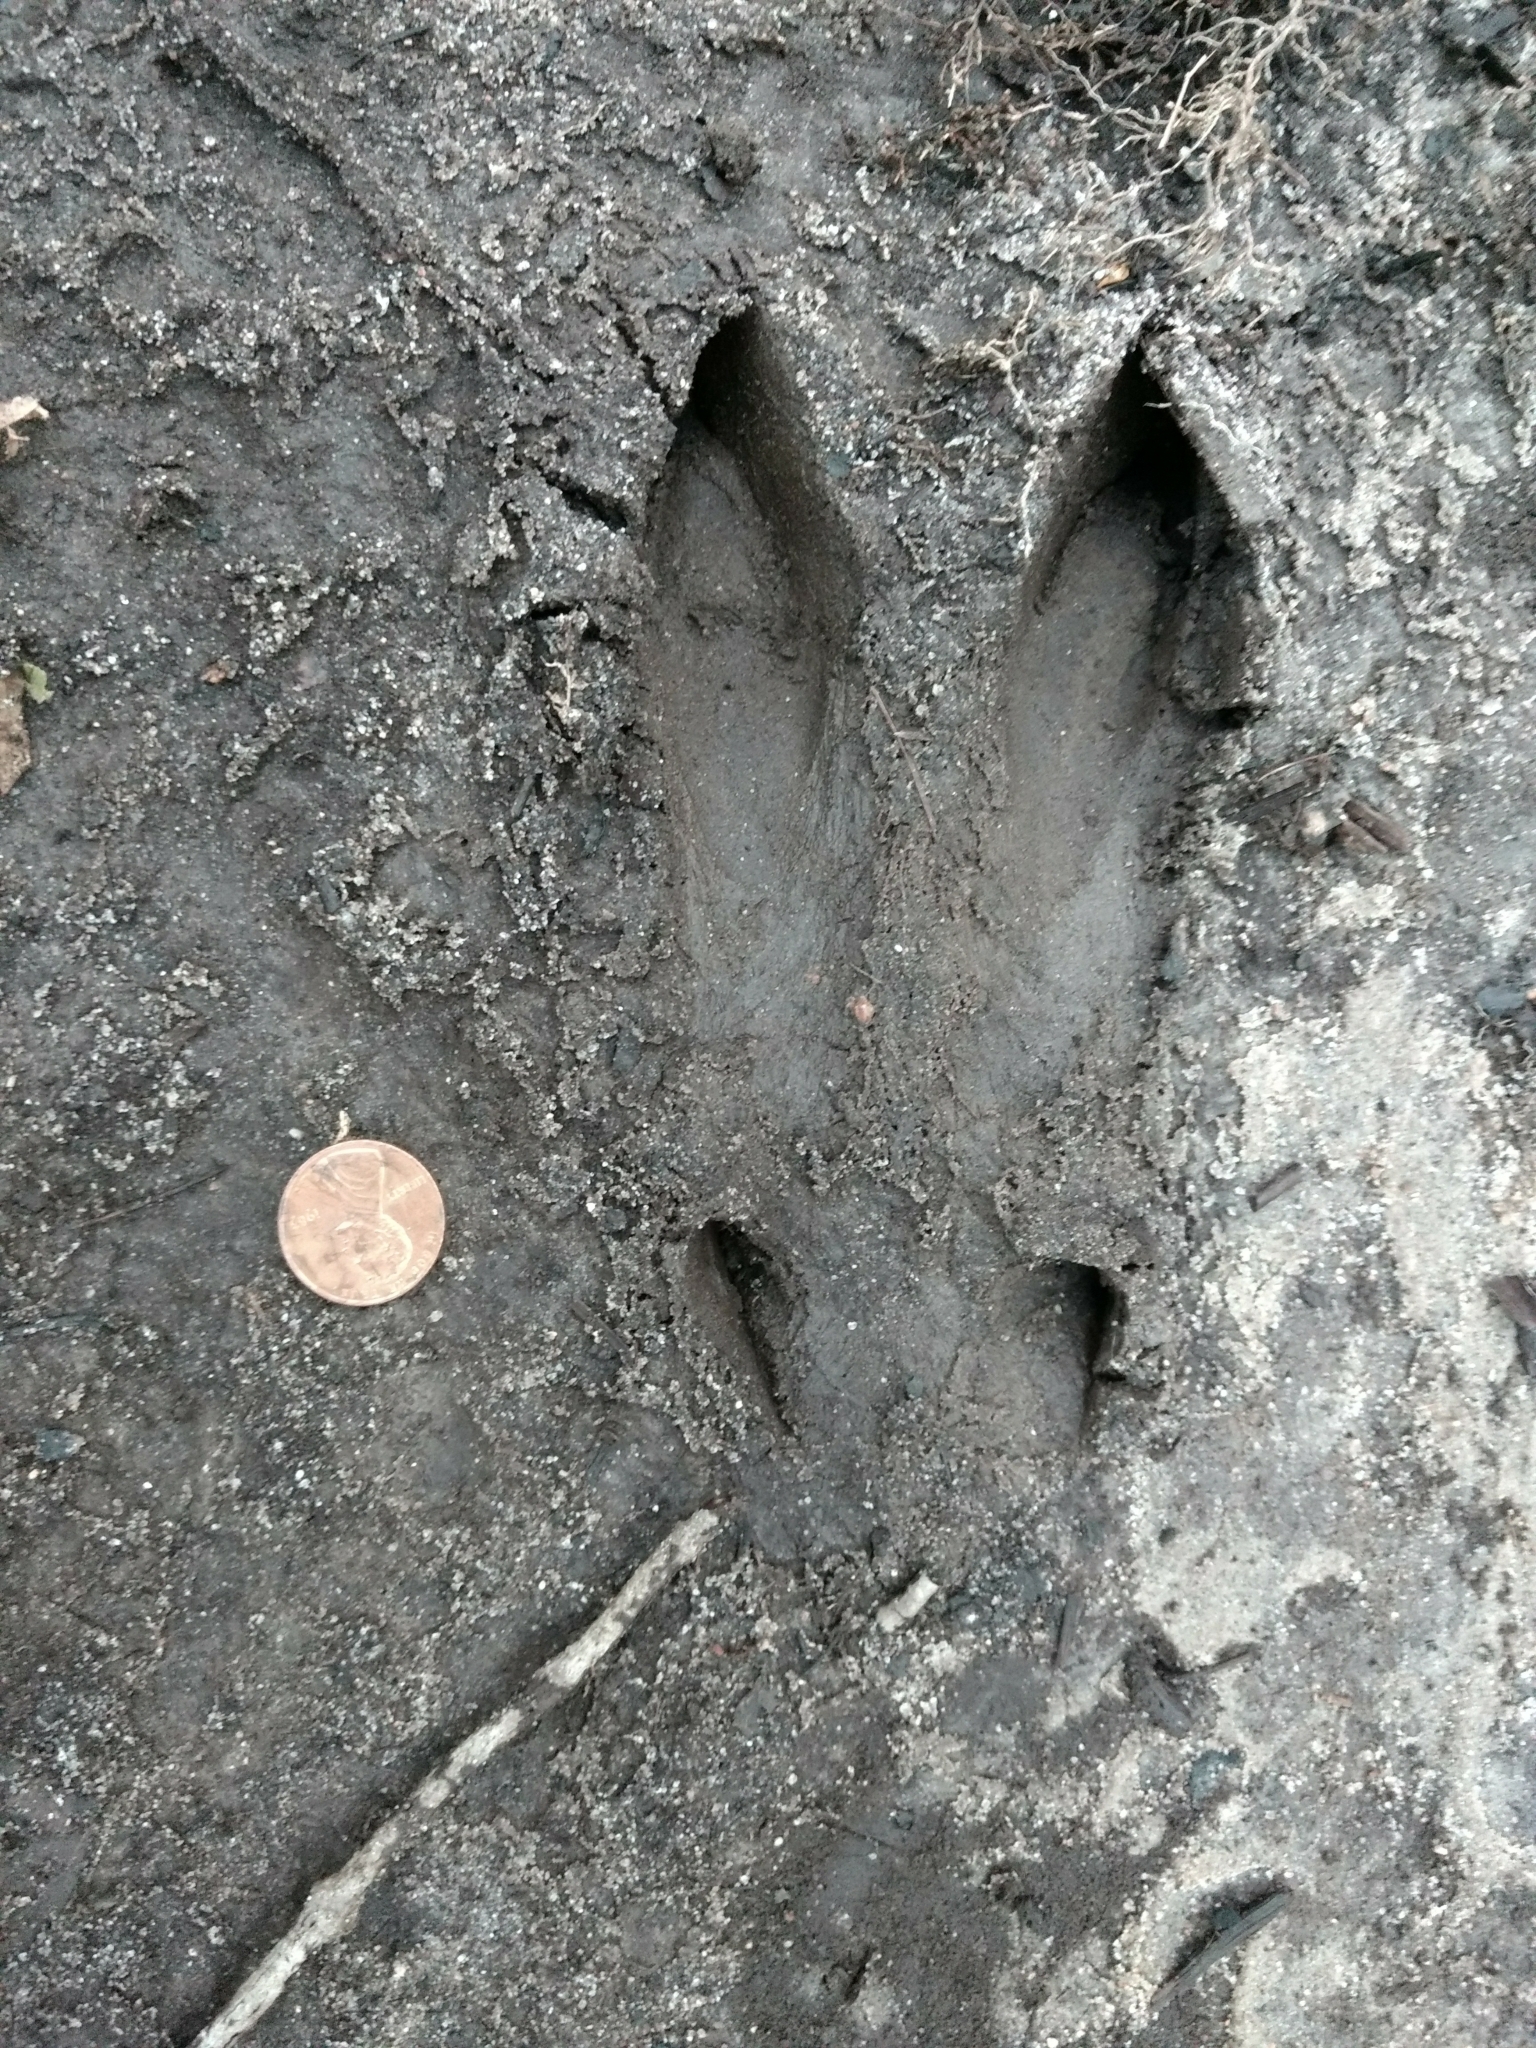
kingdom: Animalia
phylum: Chordata
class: Mammalia
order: Artiodactyla
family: Cervidae
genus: Odocoileus
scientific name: Odocoileus virginianus
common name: White-tailed deer
